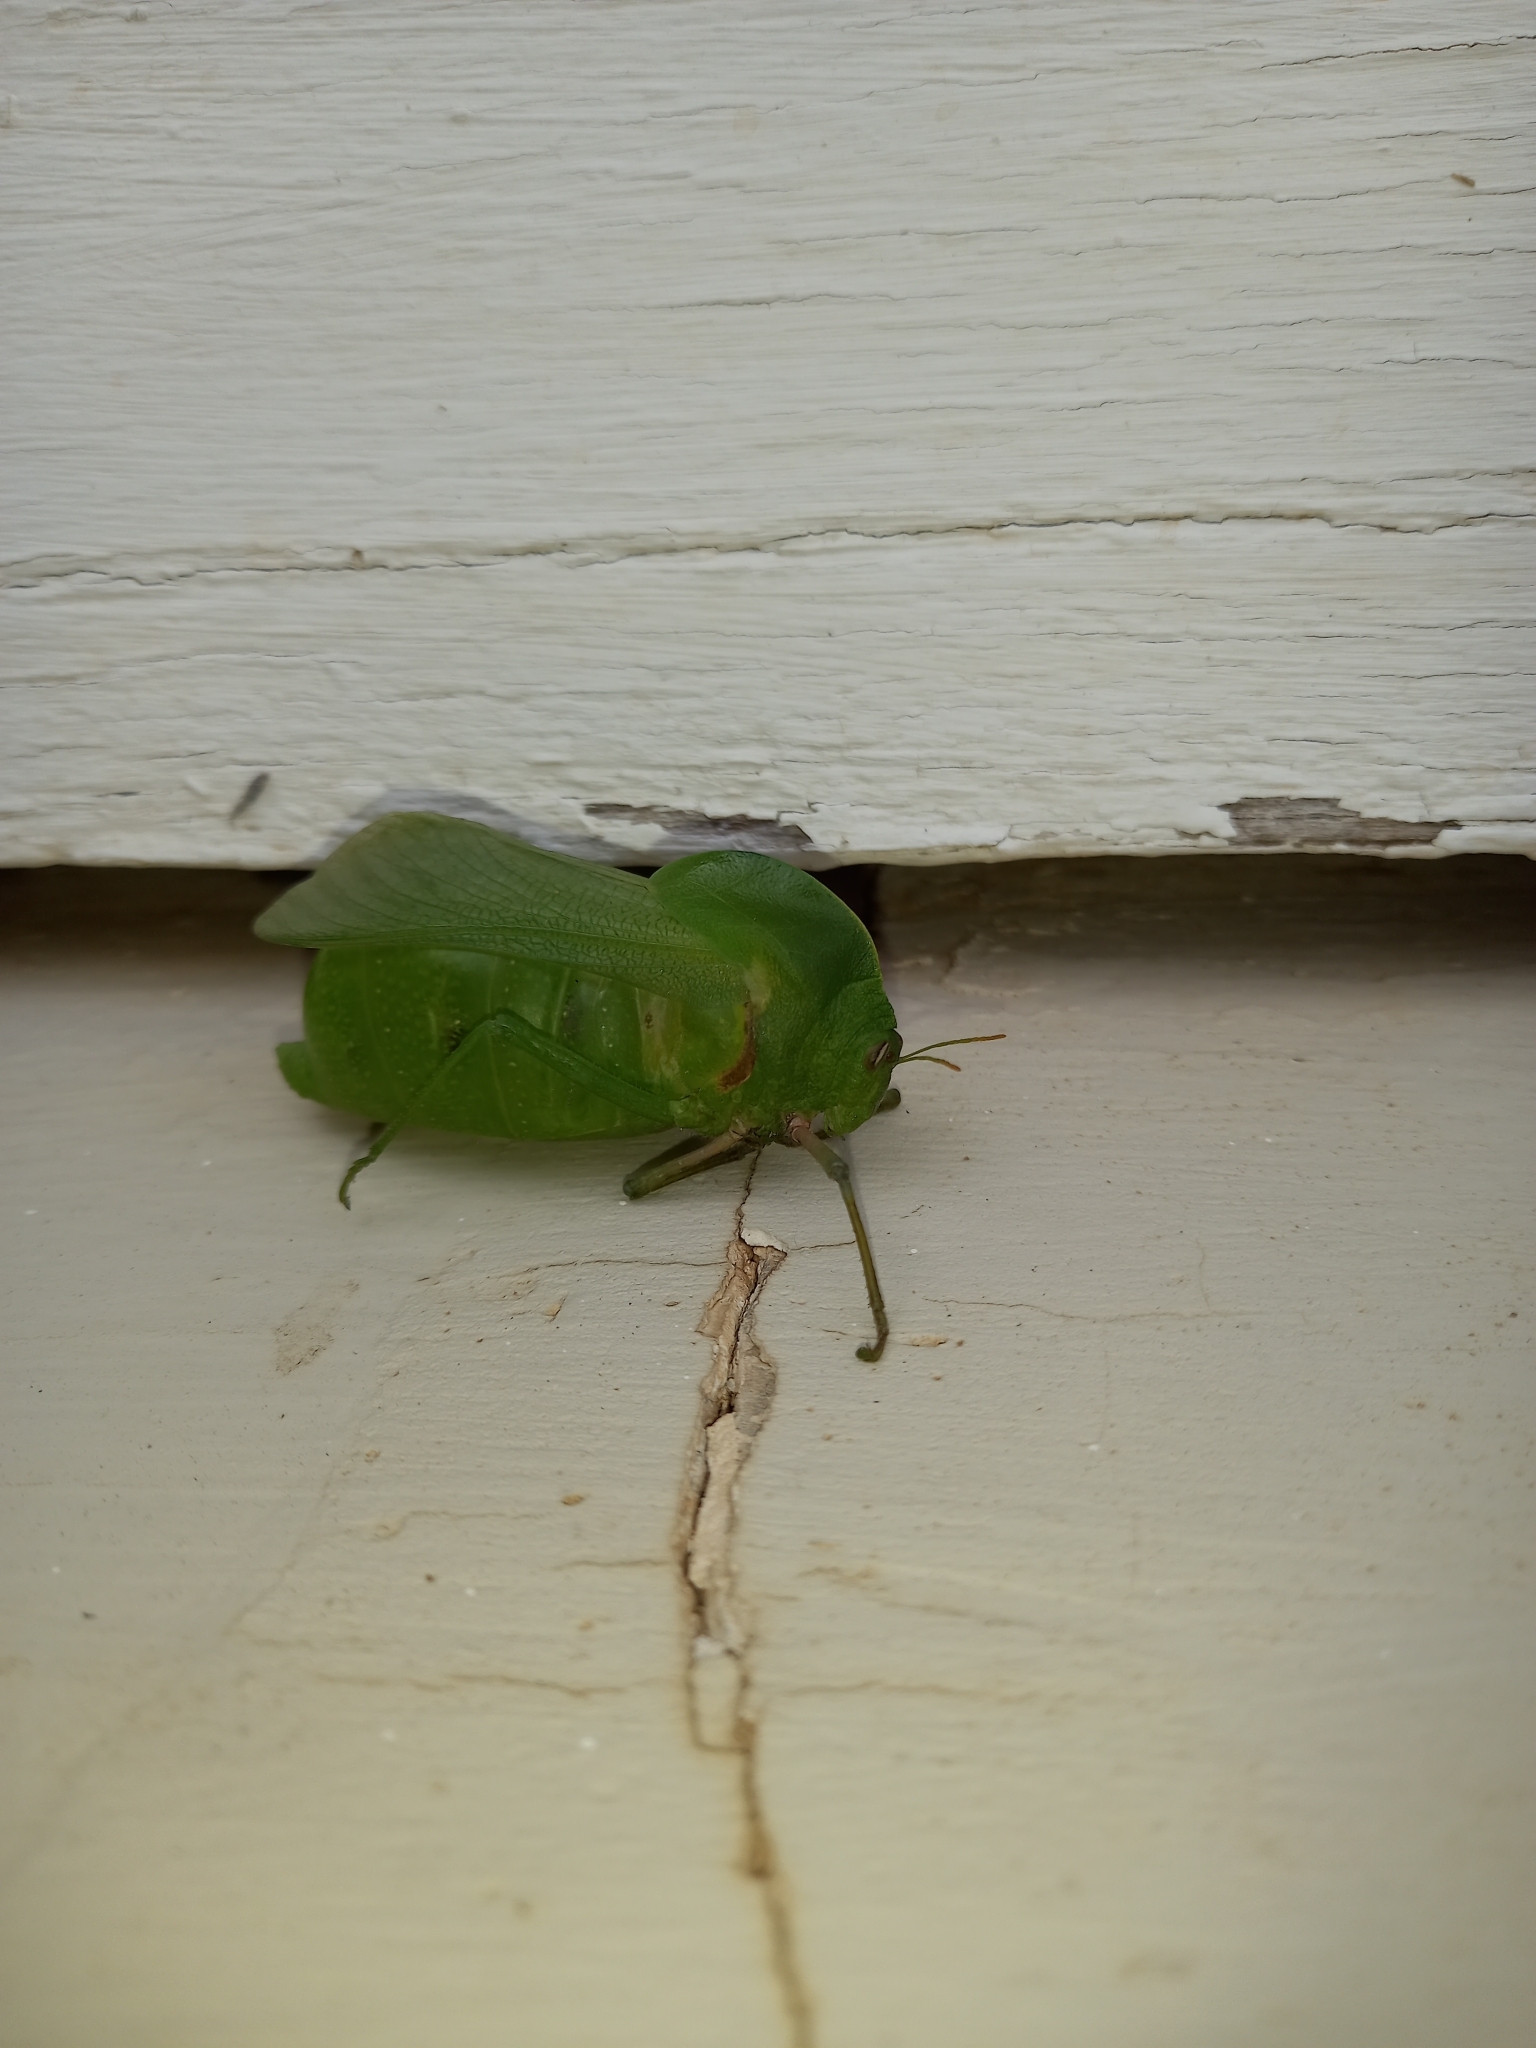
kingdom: Animalia
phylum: Arthropoda
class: Insecta
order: Orthoptera
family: Pneumoridae
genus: Bullacris
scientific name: Bullacris unicolor
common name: Bladder grasshopper
